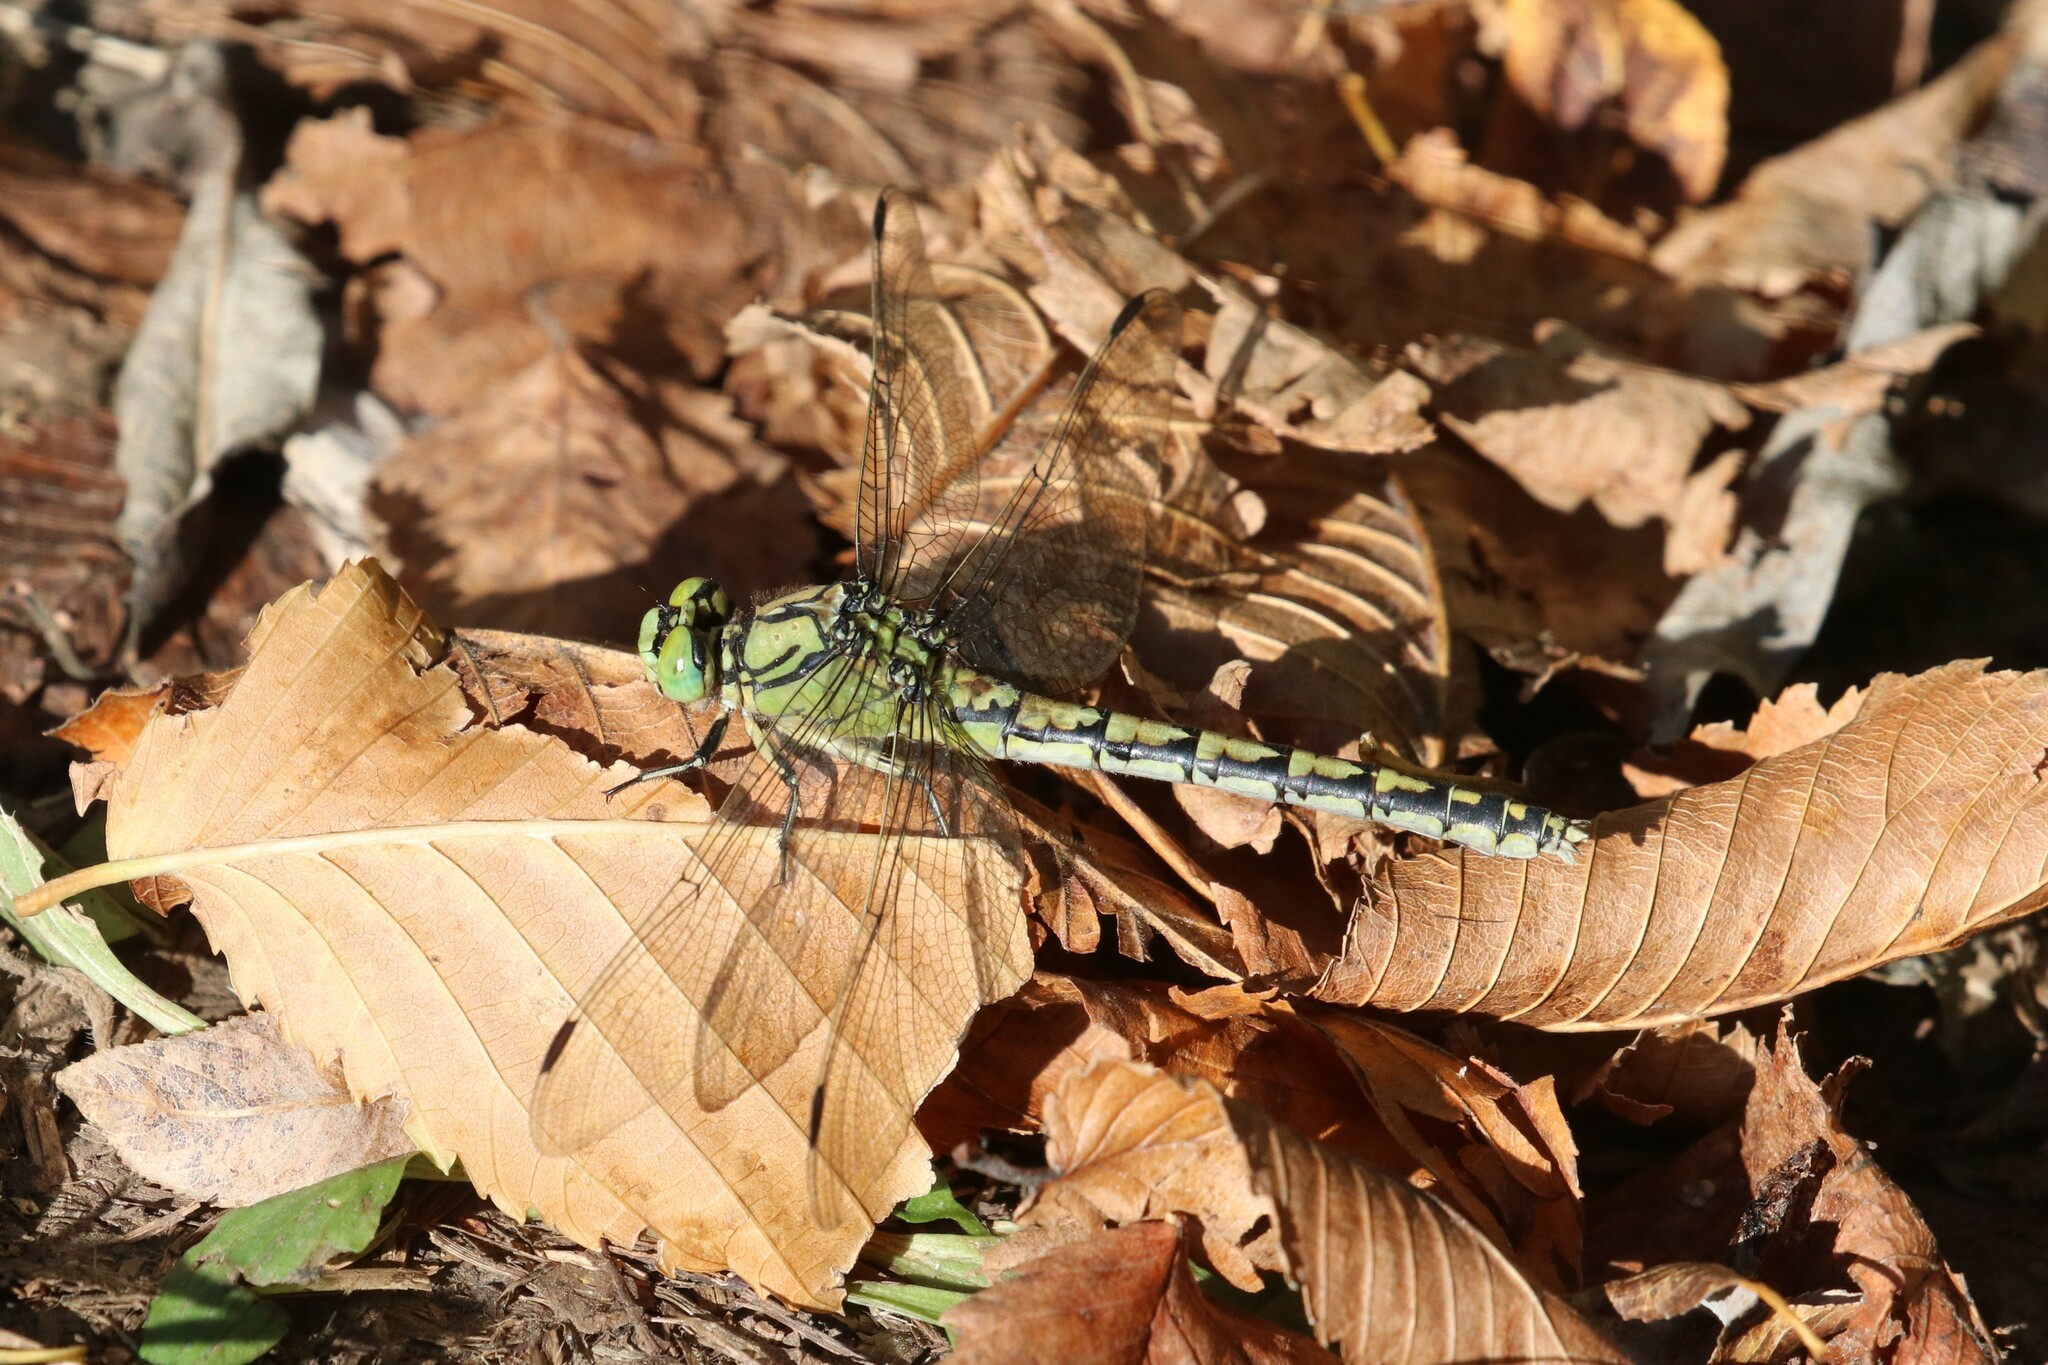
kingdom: Animalia
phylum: Arthropoda
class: Insecta
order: Odonata
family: Gomphidae
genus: Ophiogomphus
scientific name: Ophiogomphus cecilia
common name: Green snaketail
